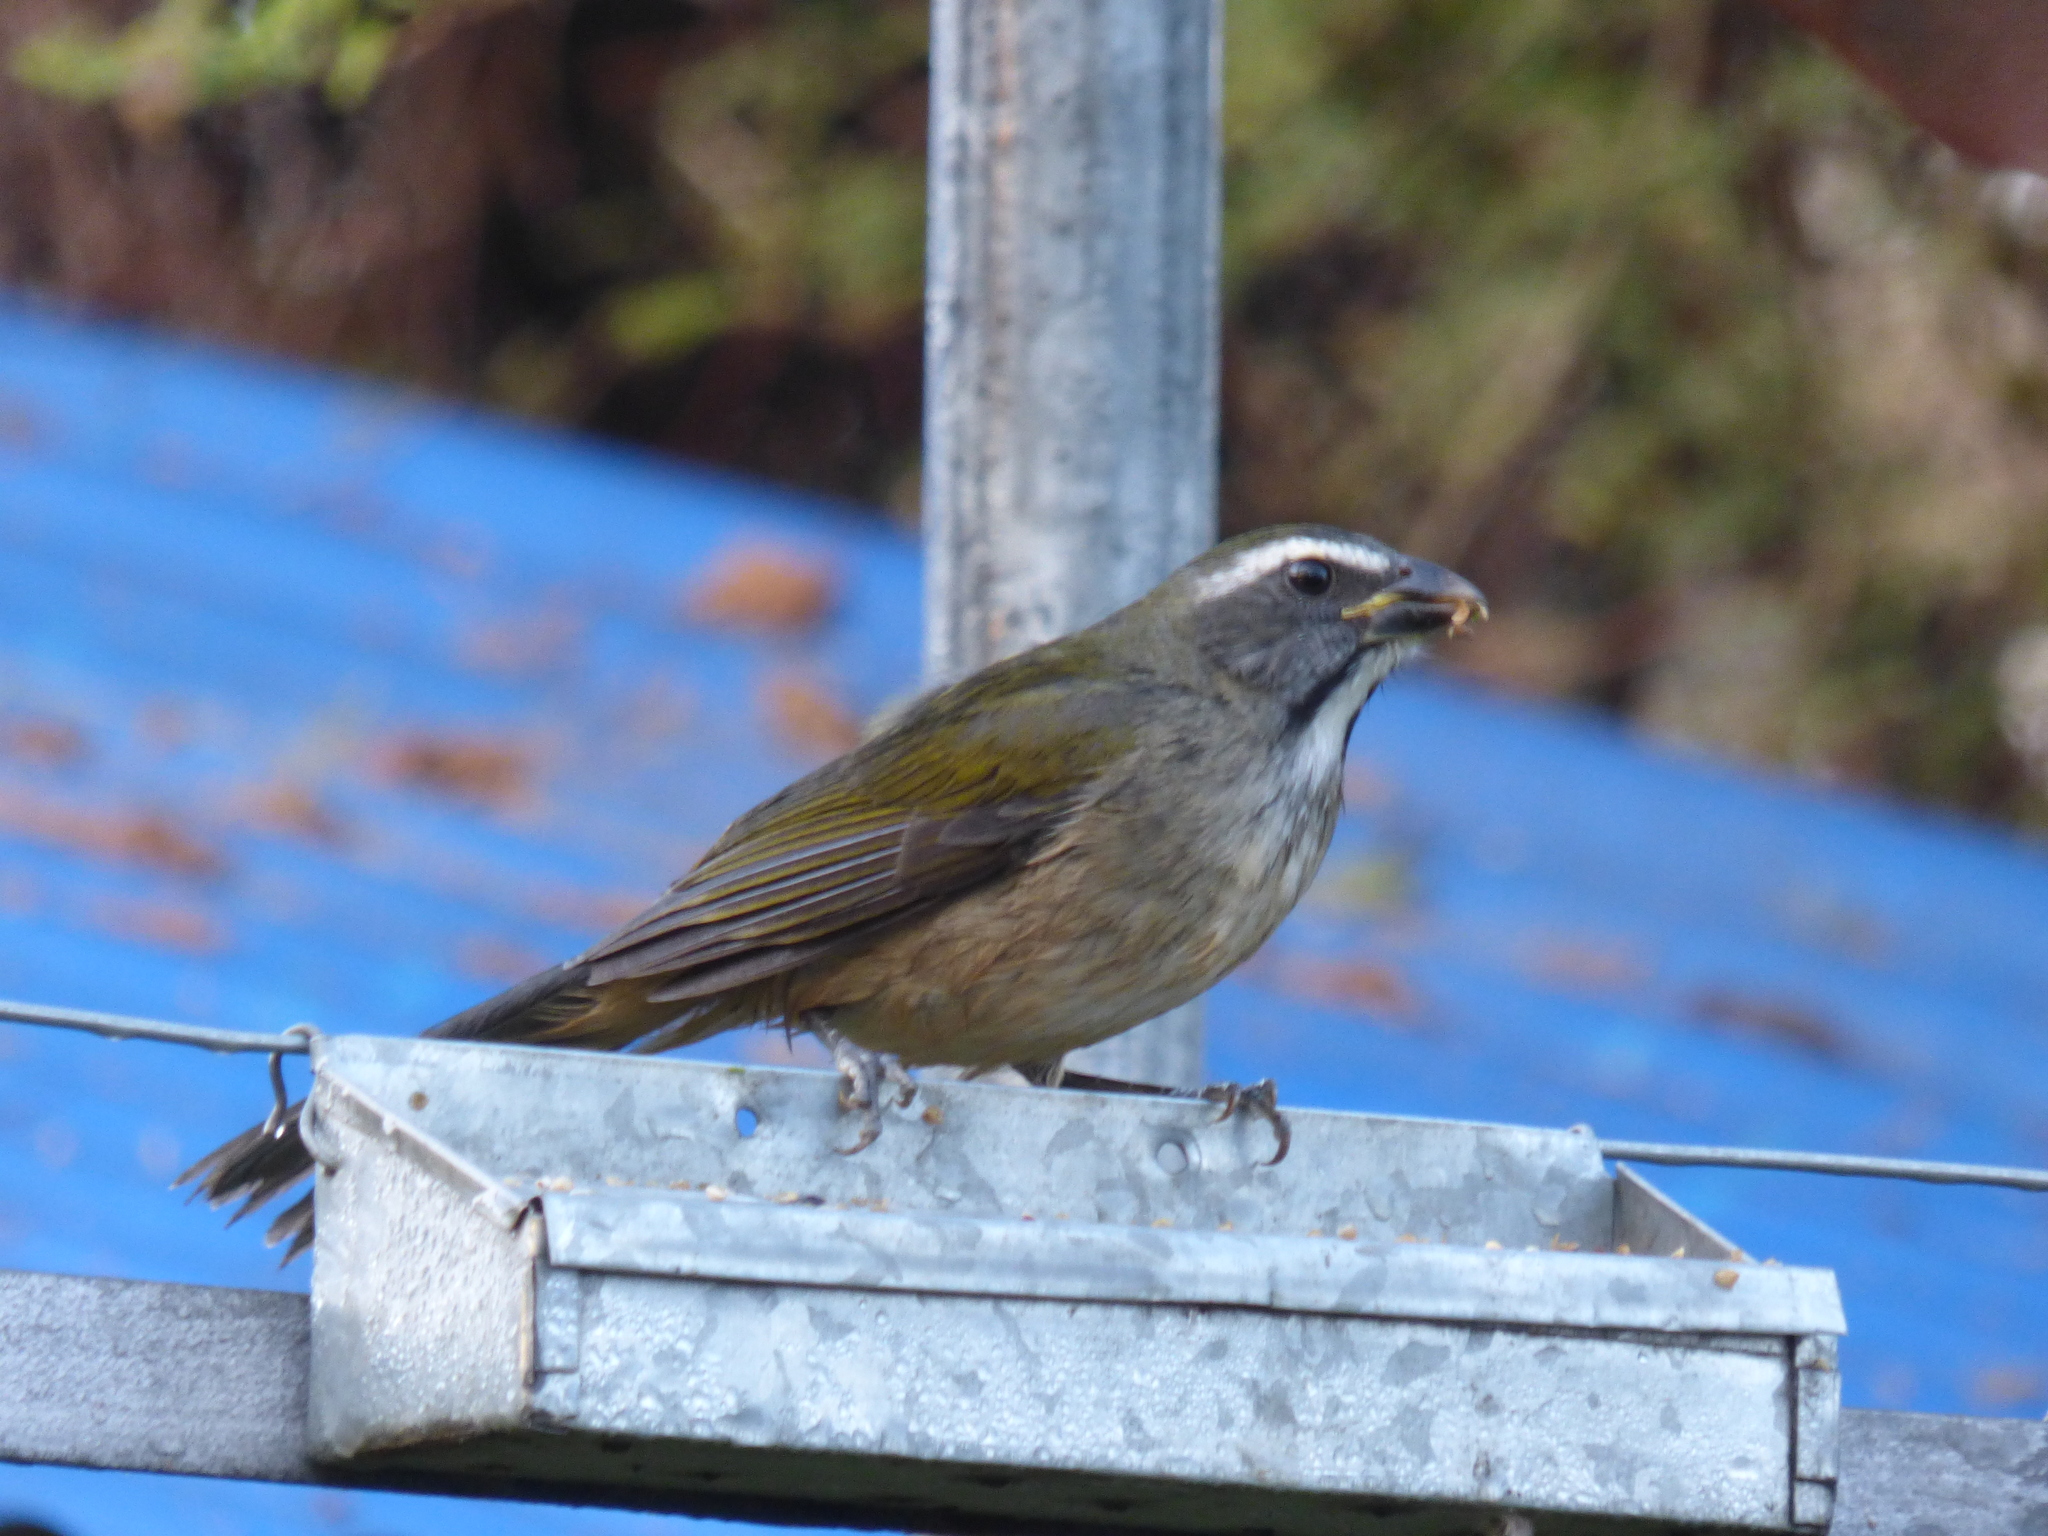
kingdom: Animalia
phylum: Chordata
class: Aves
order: Passeriformes
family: Thraupidae
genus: Saltator
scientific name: Saltator similis
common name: Green-winged saltator
